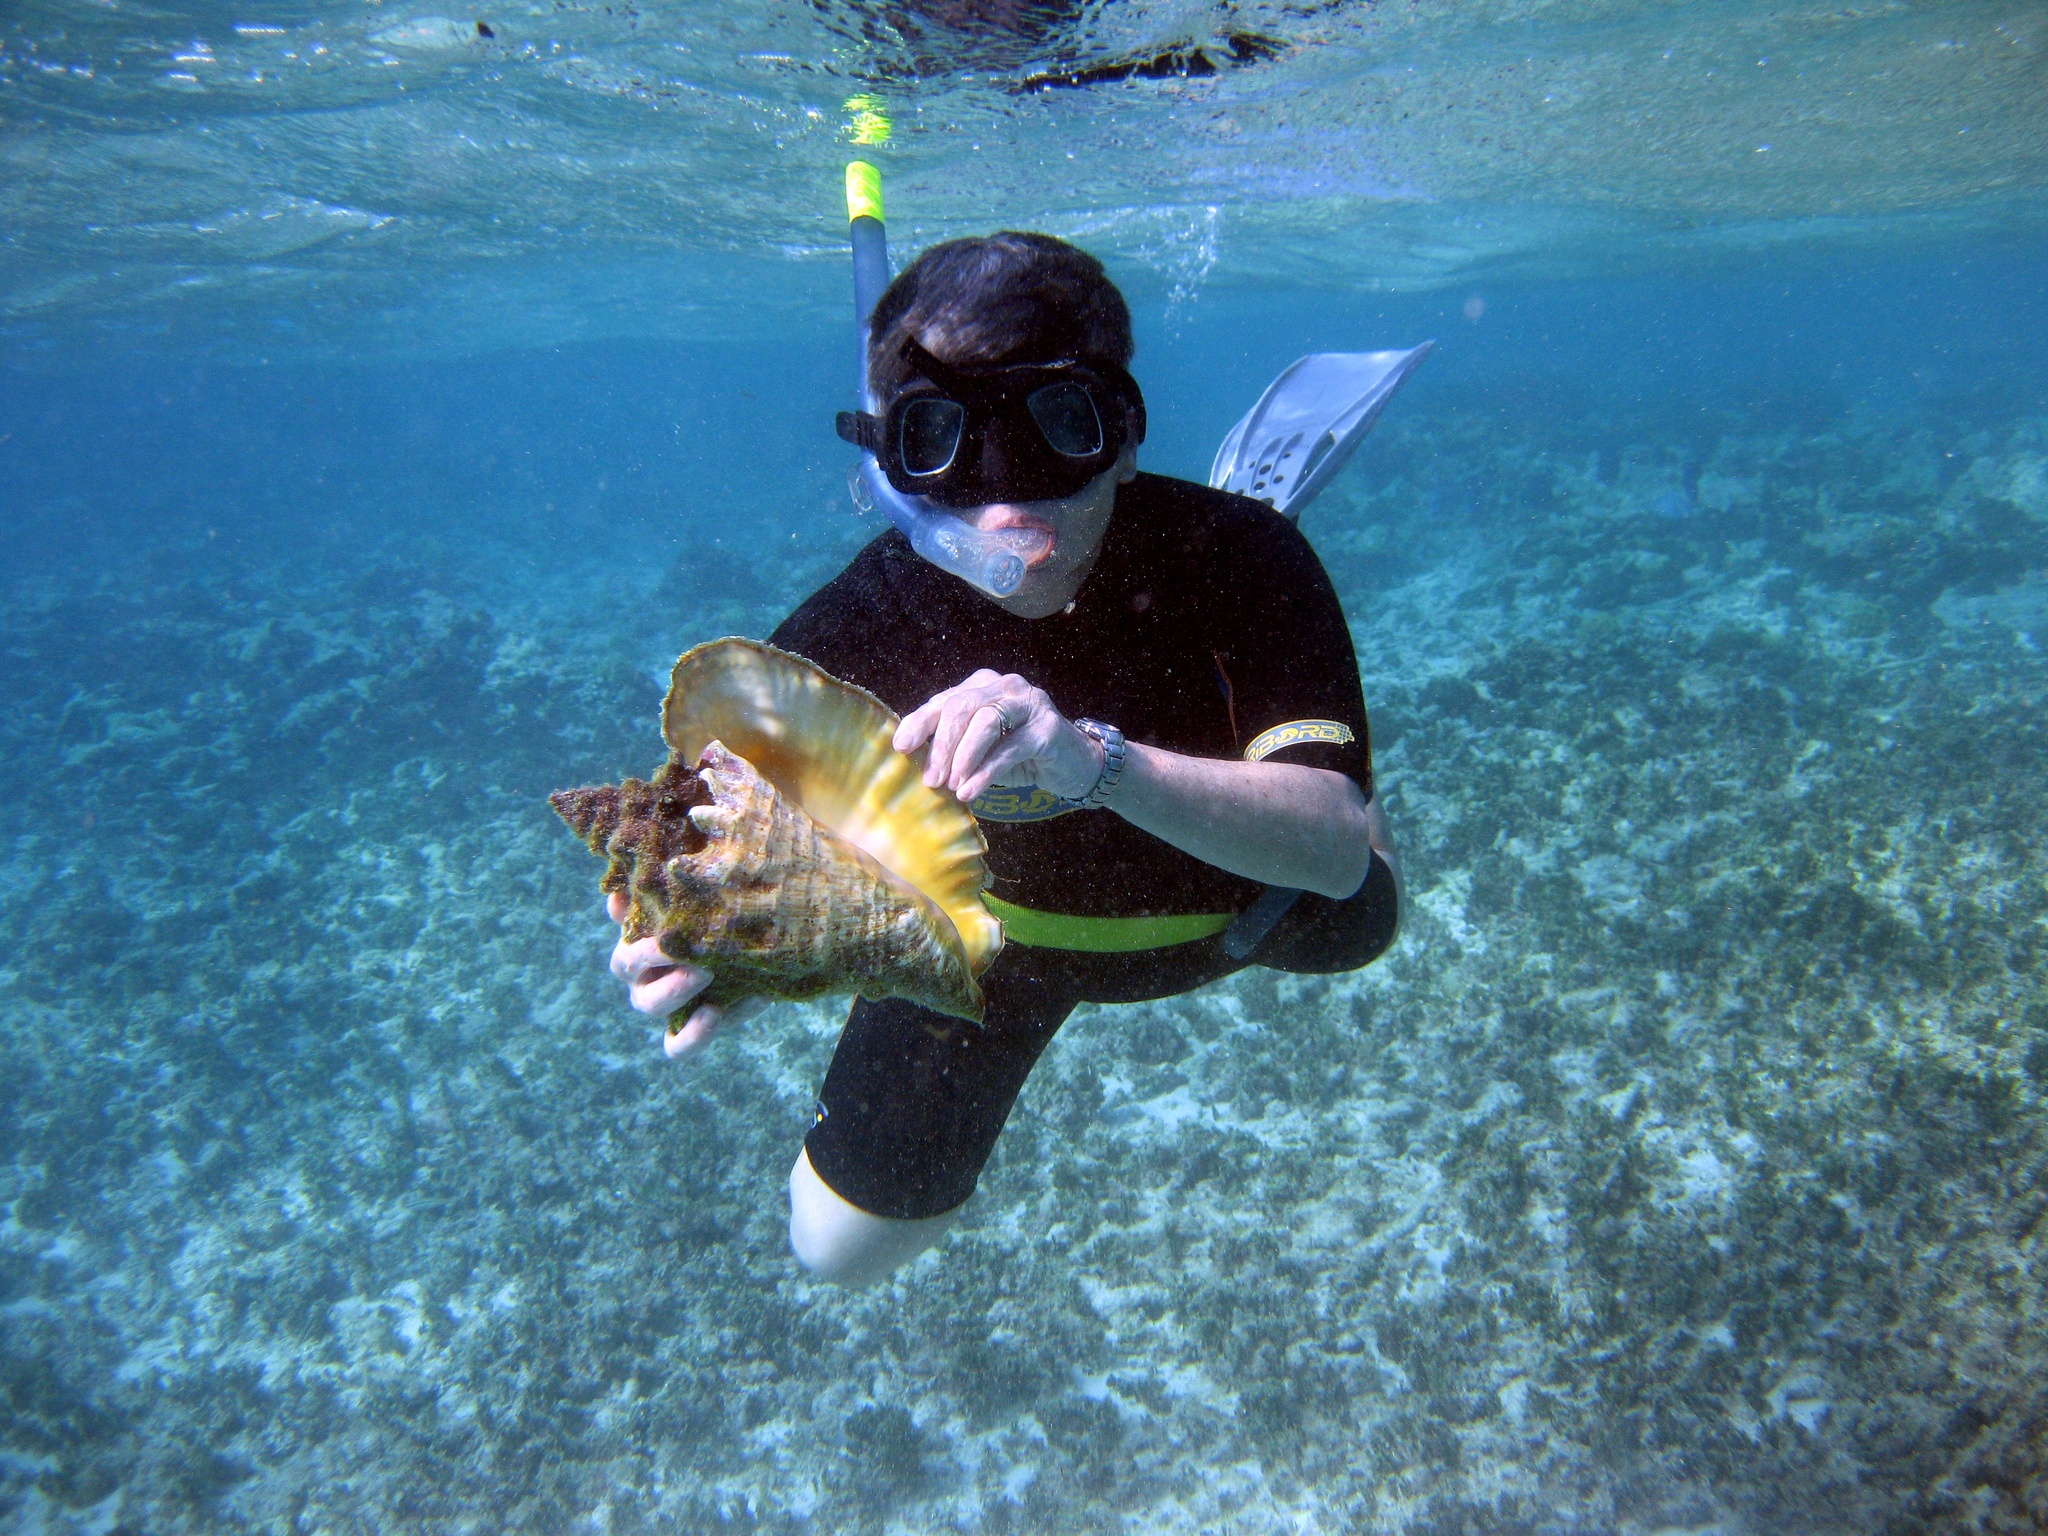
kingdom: Animalia
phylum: Mollusca
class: Gastropoda
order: Littorinimorpha
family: Strombidae
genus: Aliger
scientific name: Aliger gigas
